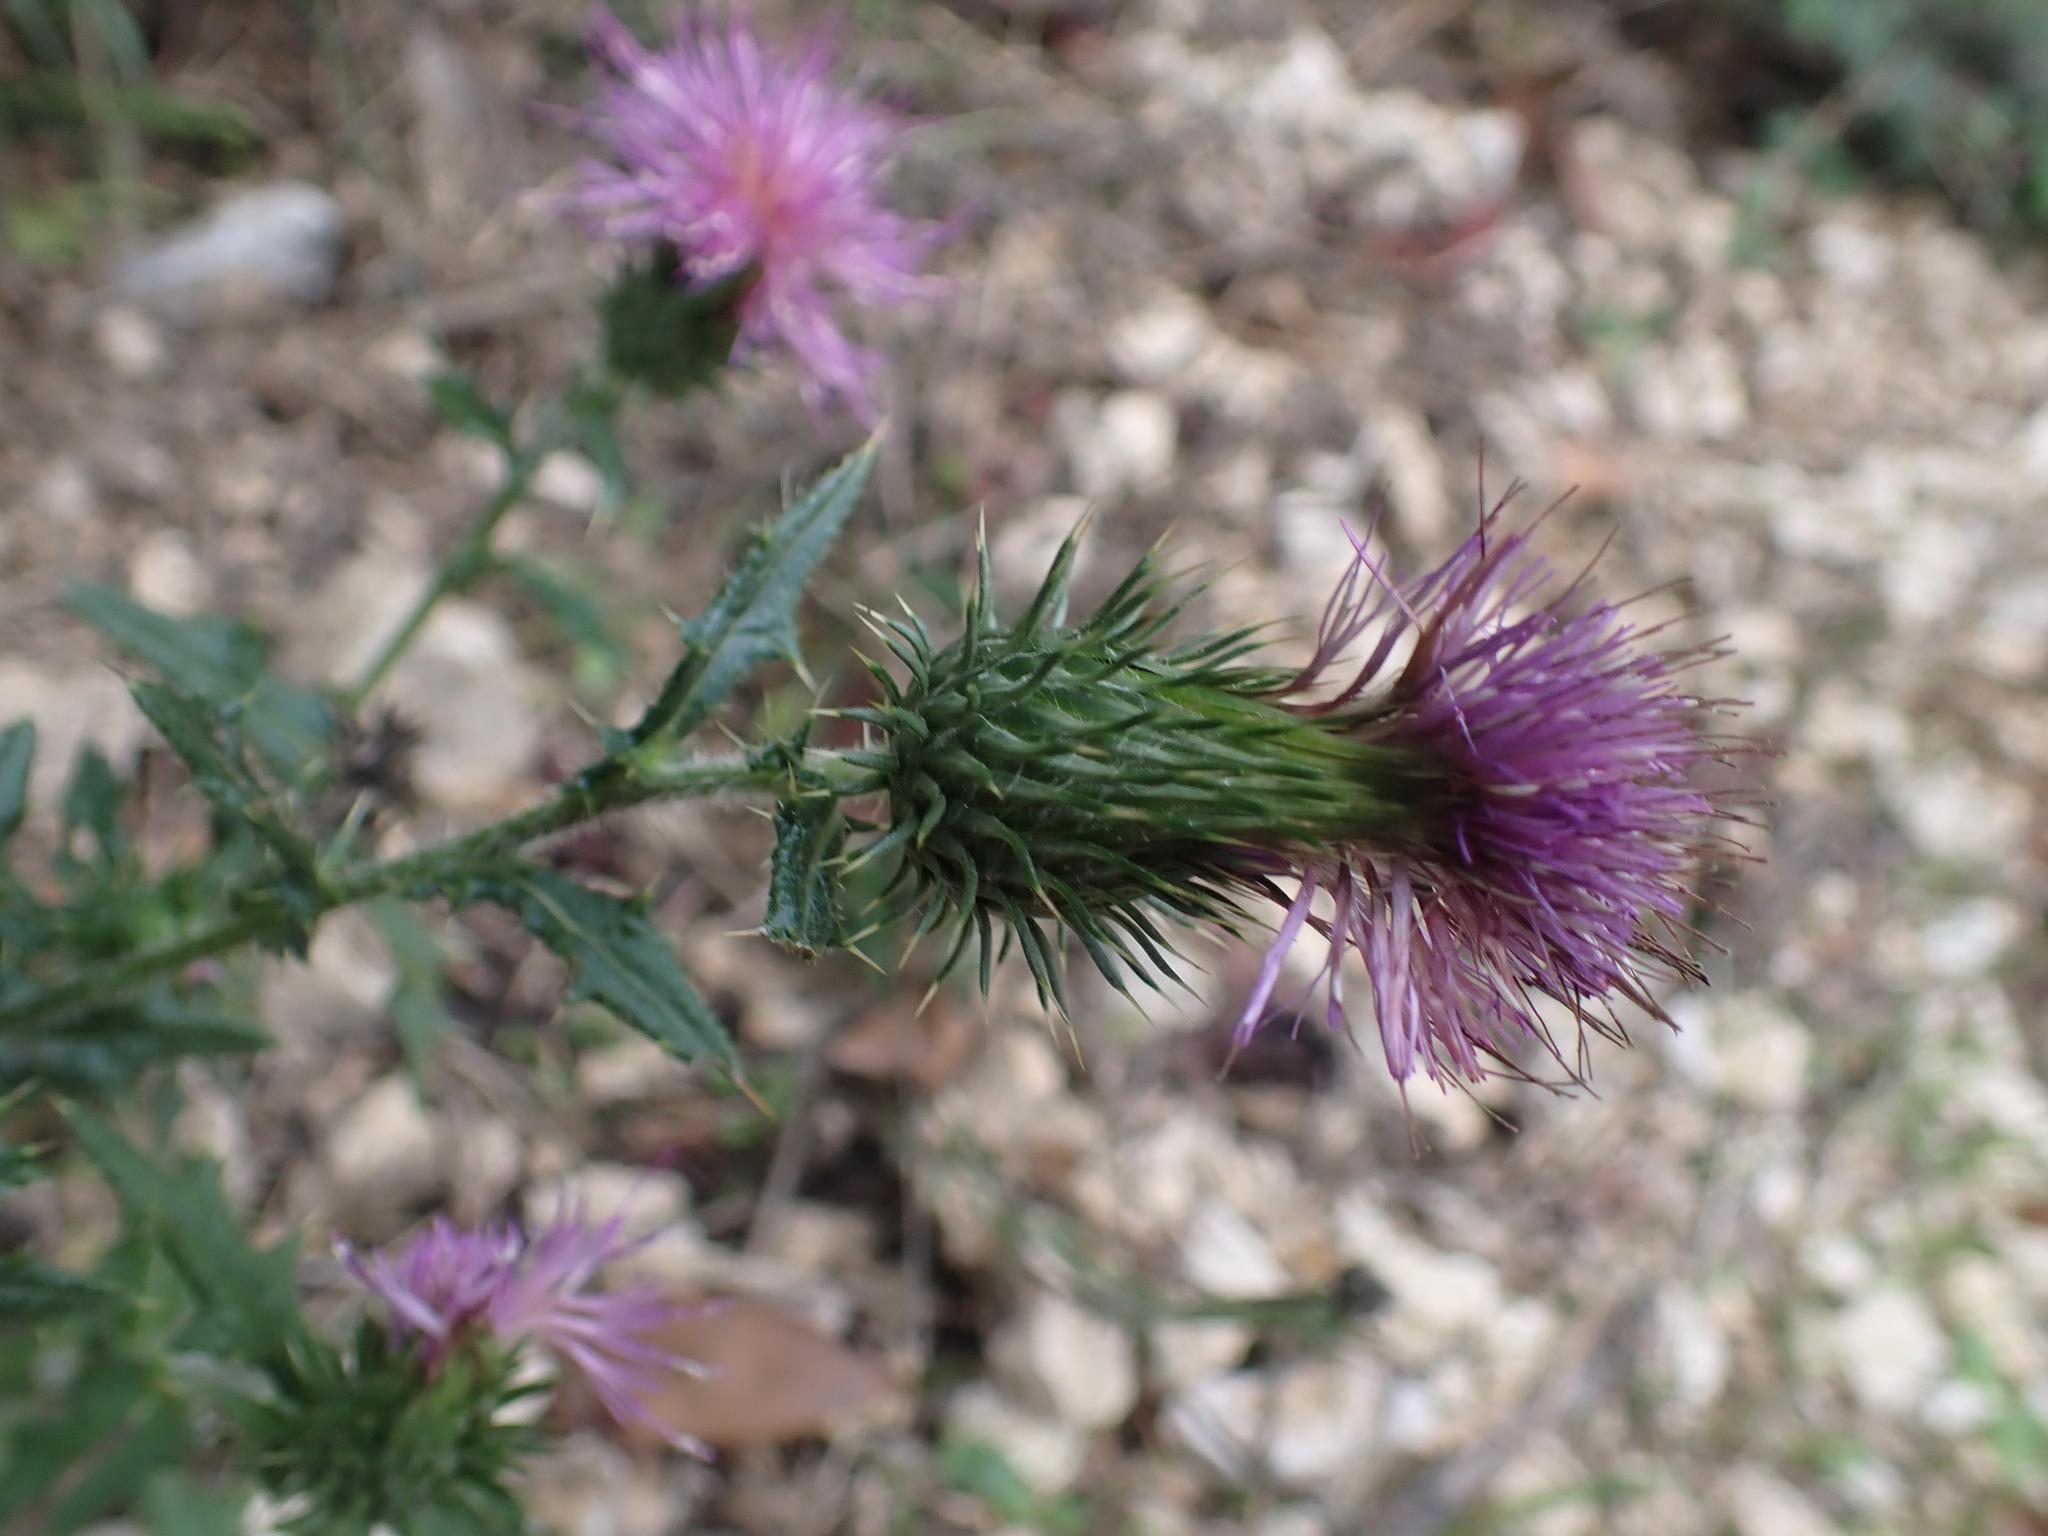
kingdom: Plantae
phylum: Tracheophyta
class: Magnoliopsida
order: Asterales
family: Asteraceae
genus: Cirsium
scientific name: Cirsium vulgare
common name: Bull thistle
